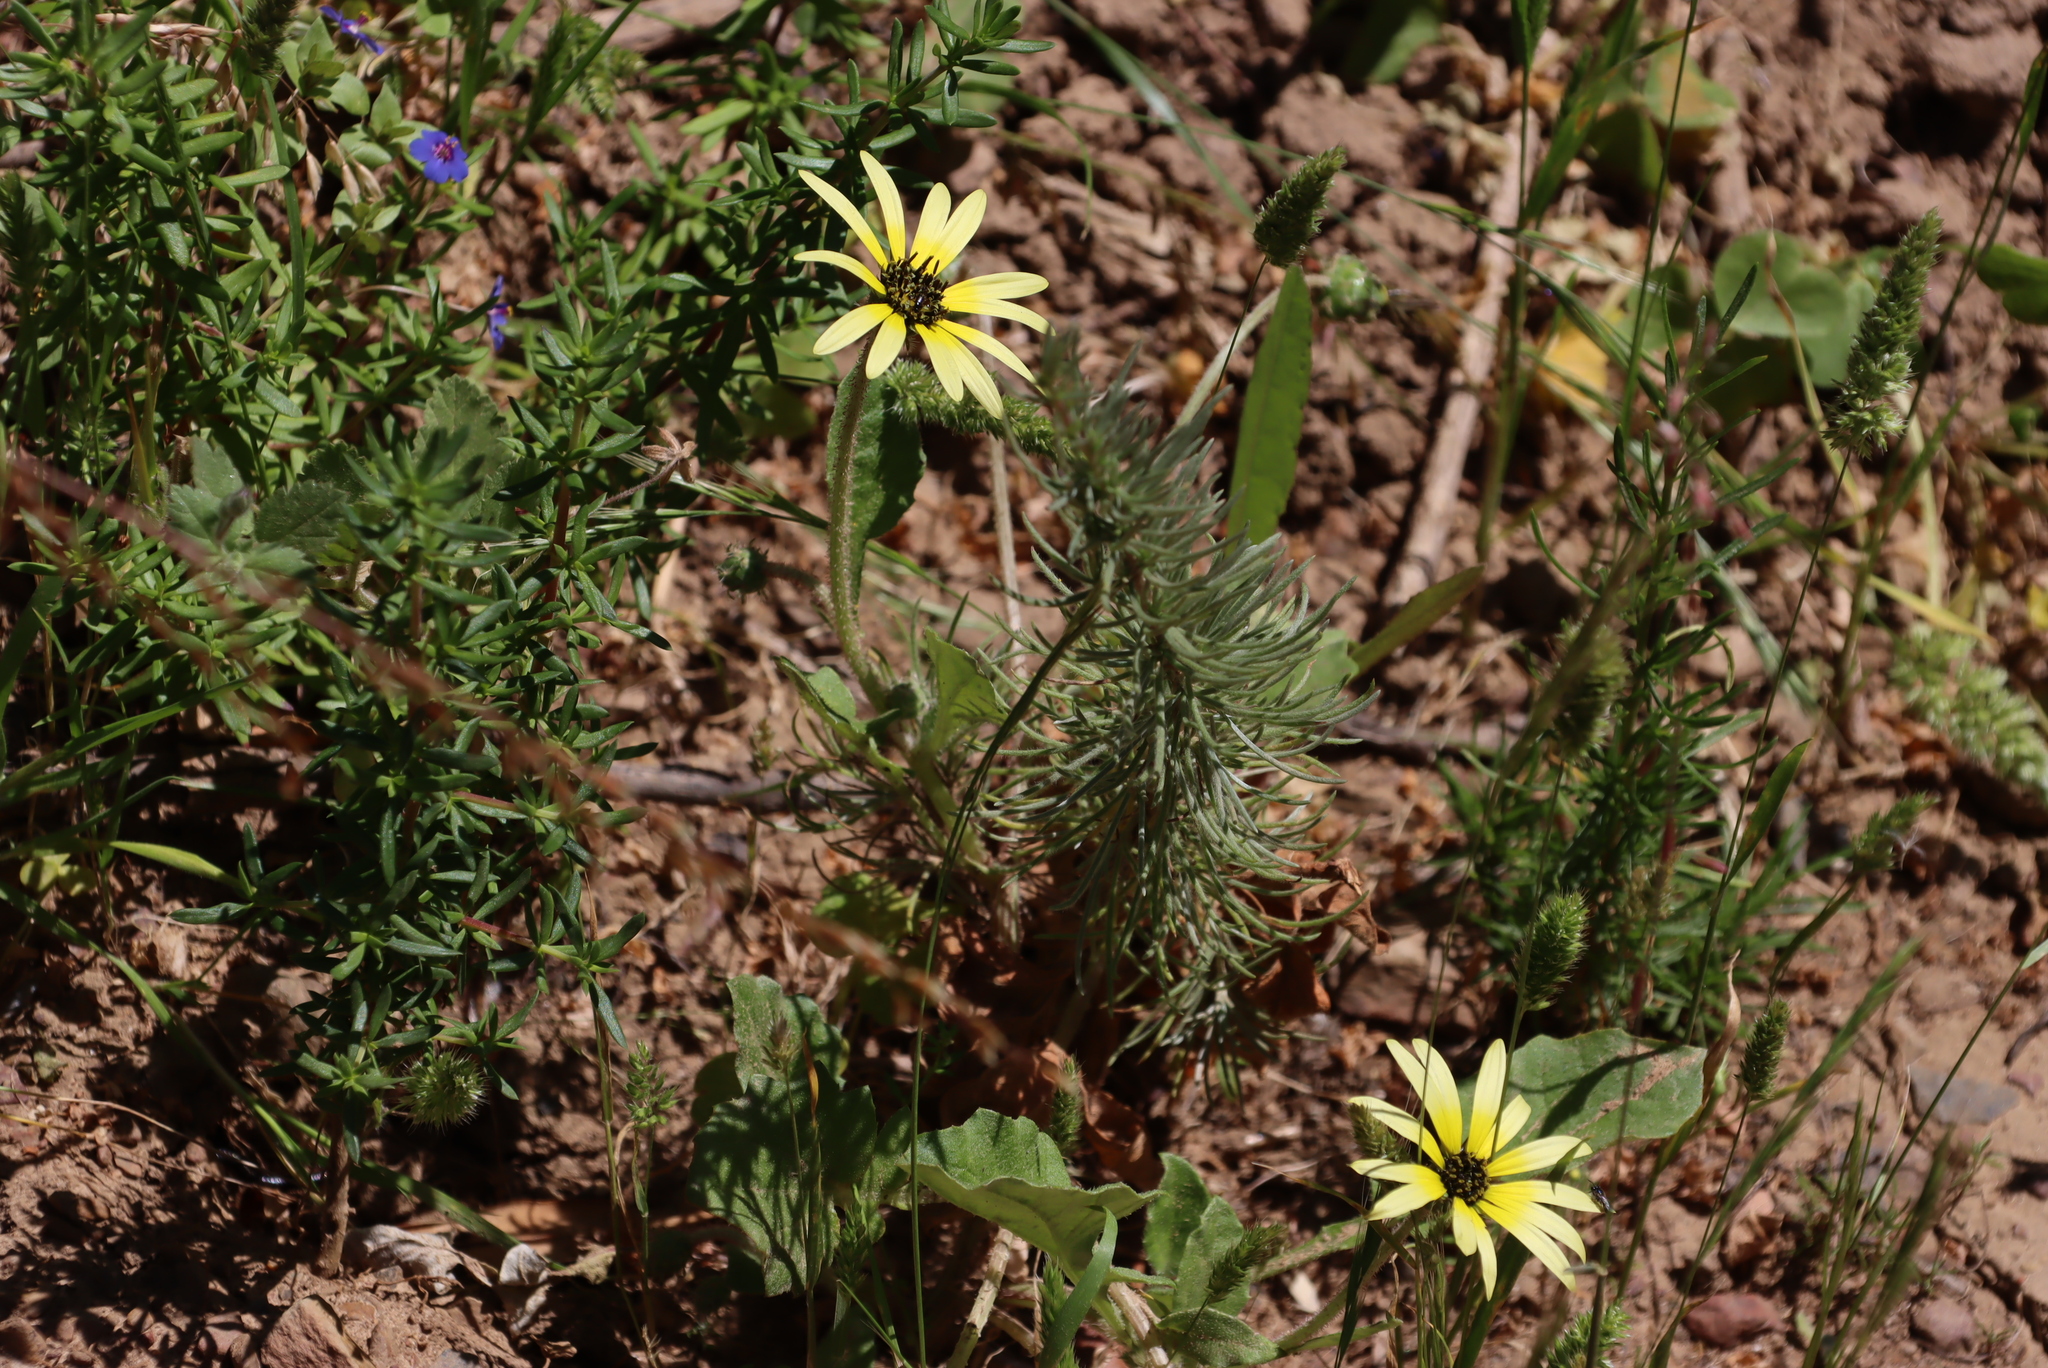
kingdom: Plantae
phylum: Tracheophyta
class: Magnoliopsida
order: Asterales
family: Asteraceae
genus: Arctotheca
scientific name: Arctotheca calendula
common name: Capeweed
